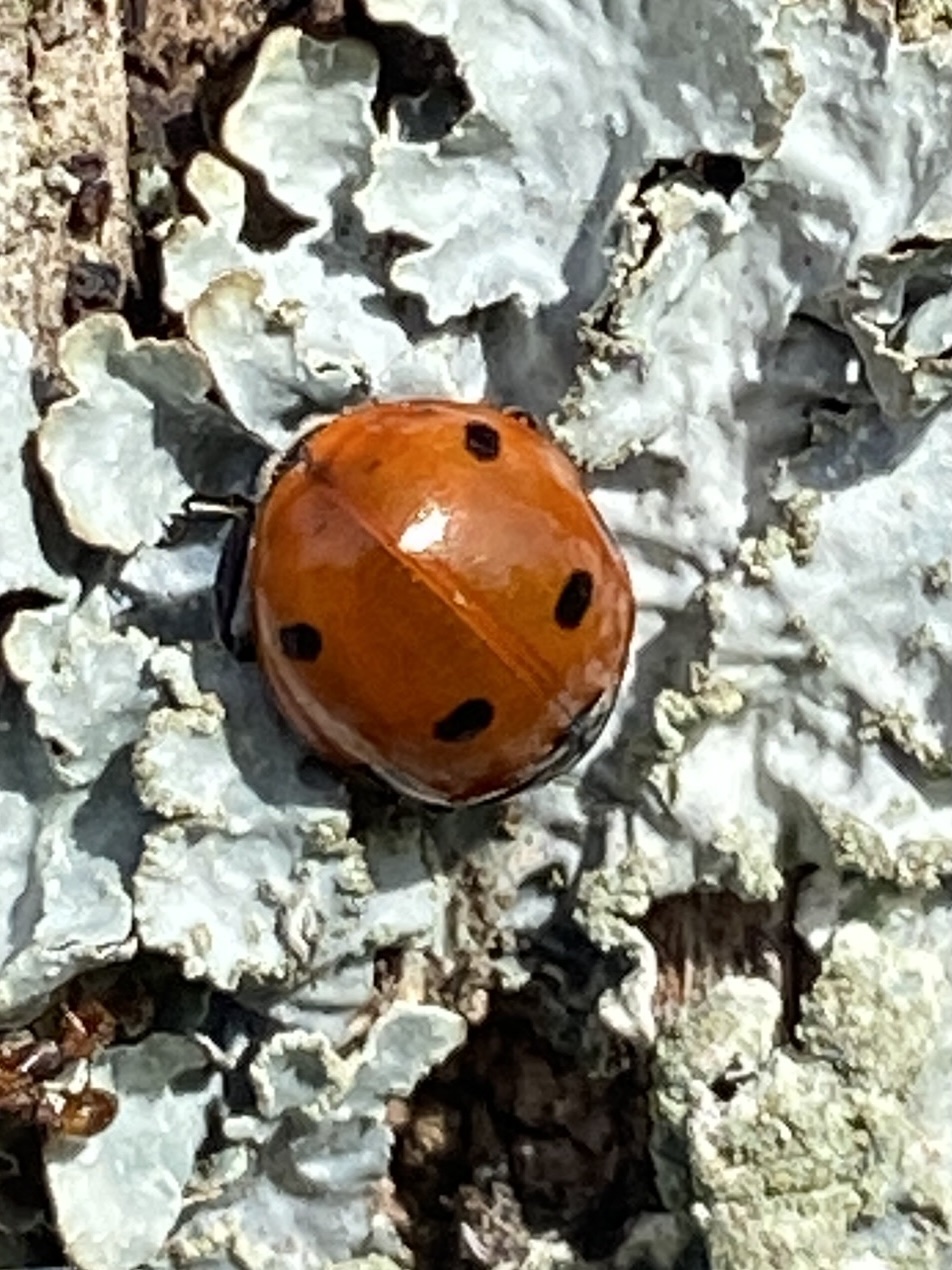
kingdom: Animalia
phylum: Arthropoda
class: Insecta
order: Coleoptera
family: Coccinellidae
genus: Coccinella
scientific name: Coccinella septempunctata
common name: Sevenspotted lady beetle
